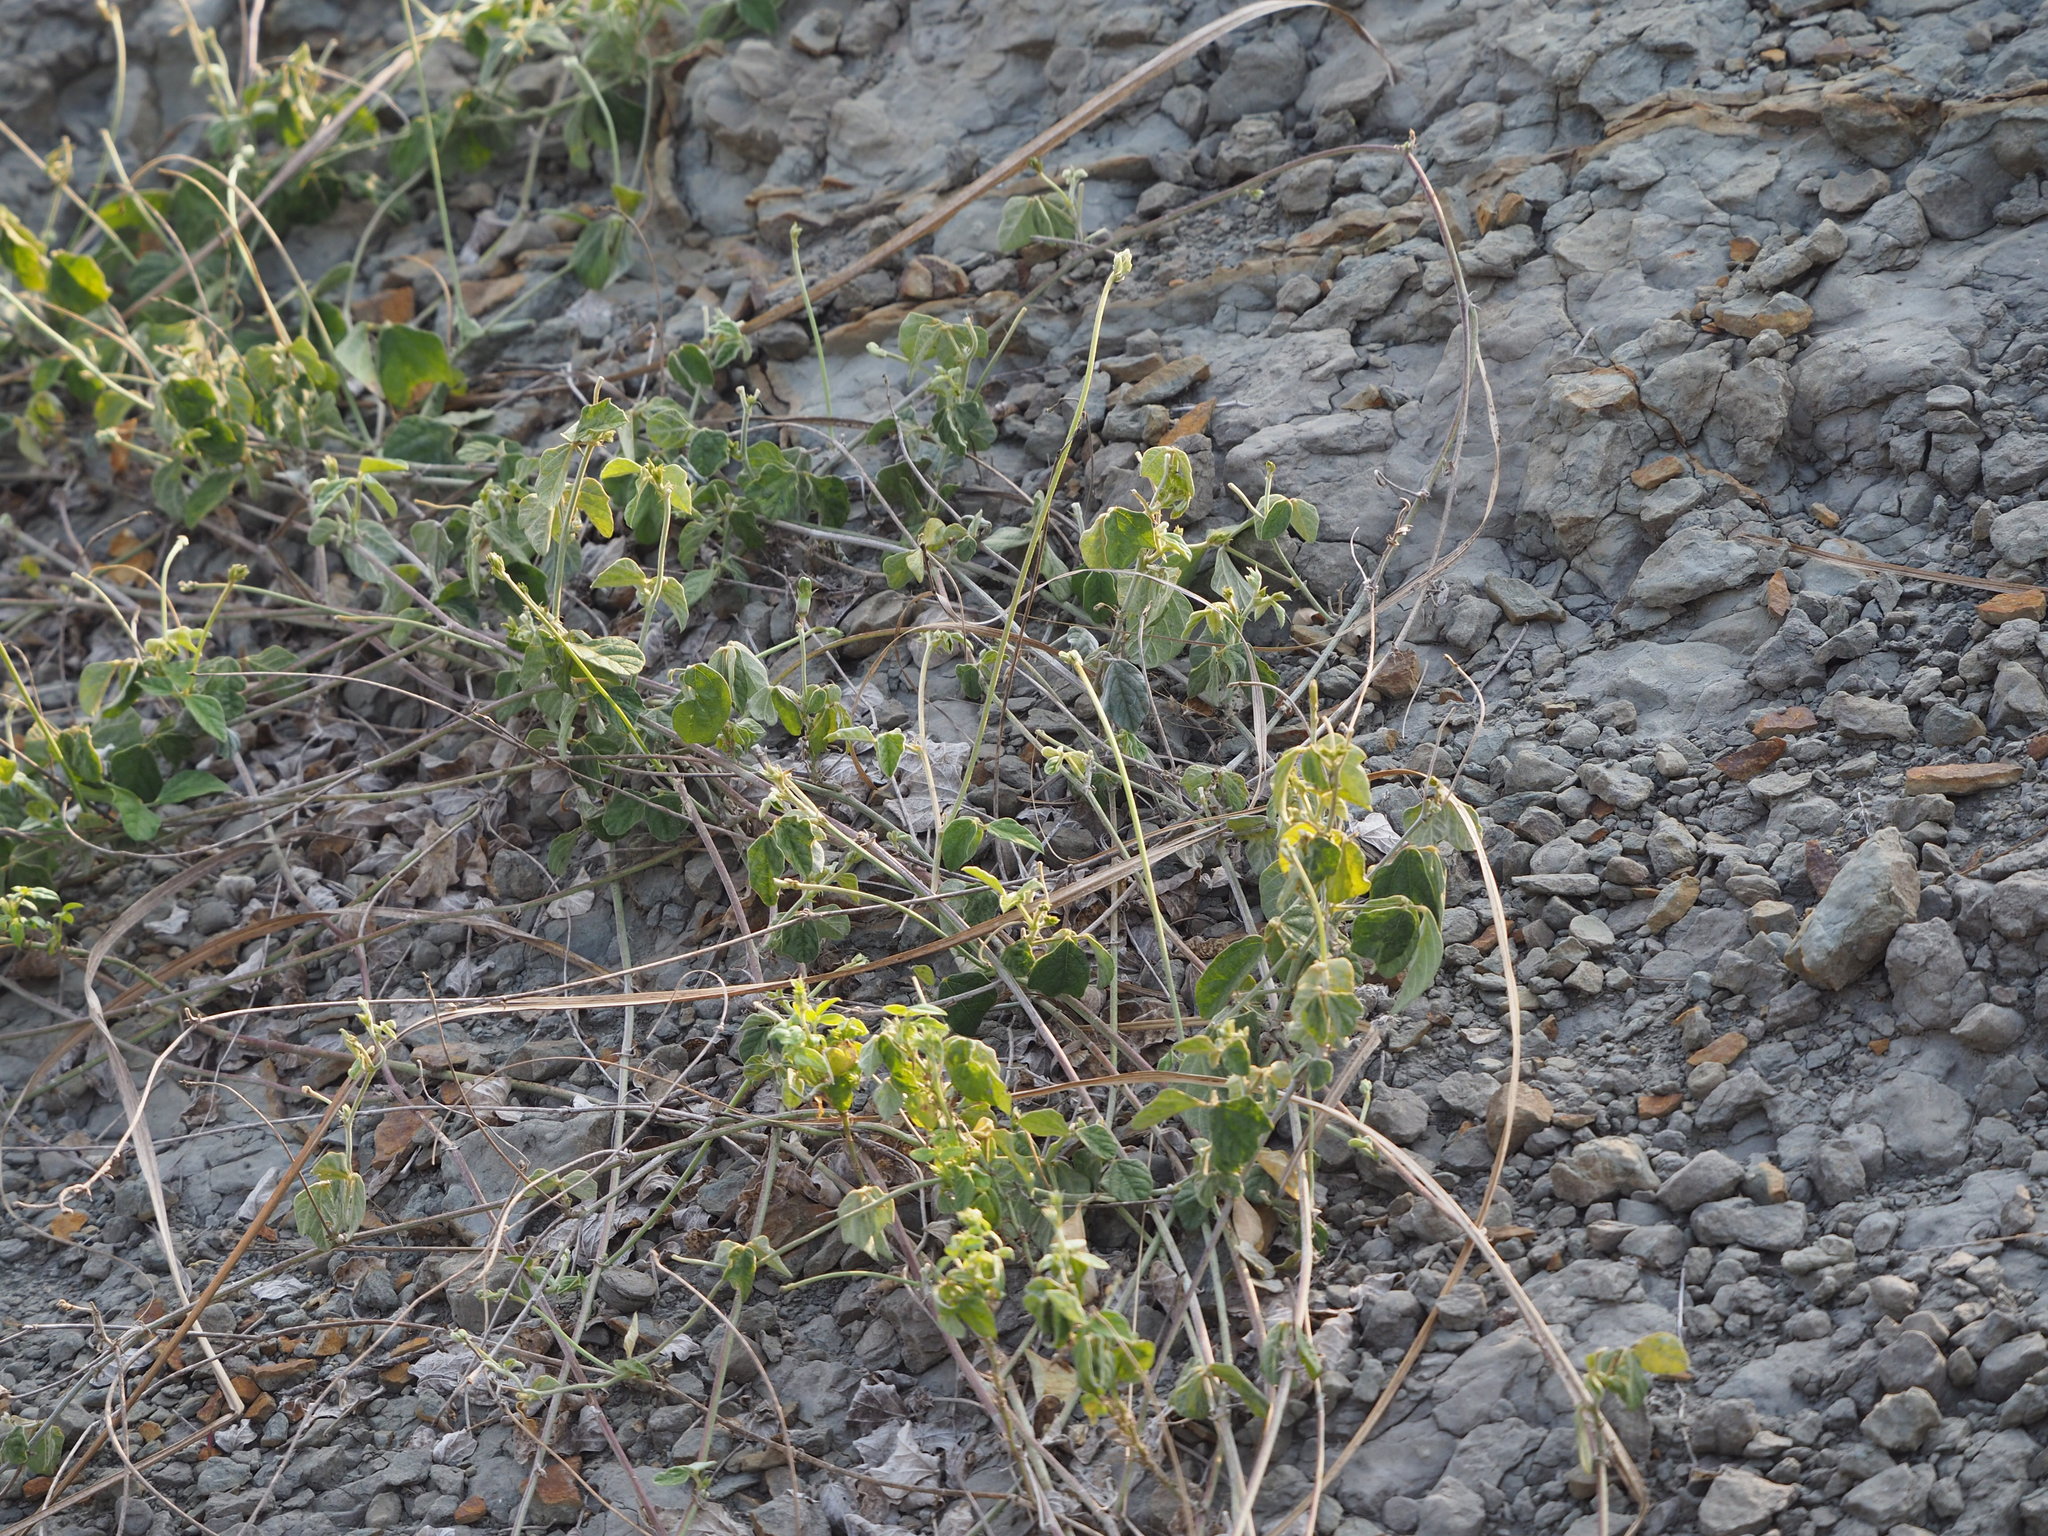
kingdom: Plantae
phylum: Tracheophyta
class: Magnoliopsida
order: Fabales
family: Fabaceae
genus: Macroptilium
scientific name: Macroptilium atropurpureum
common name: Purple bushbean
